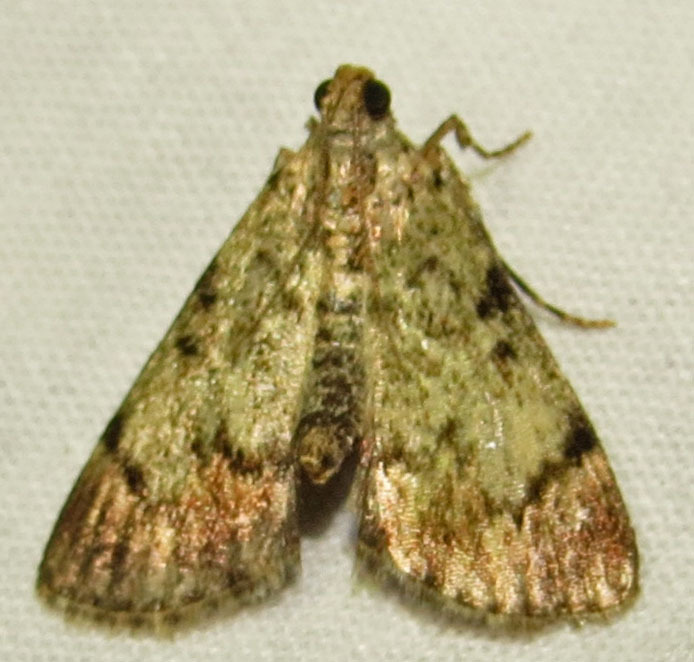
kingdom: Animalia
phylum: Arthropoda
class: Insecta
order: Lepidoptera
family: Pyralidae
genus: Epipaschia
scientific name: Epipaschia superatalis
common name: Dimorphic macalla moth
